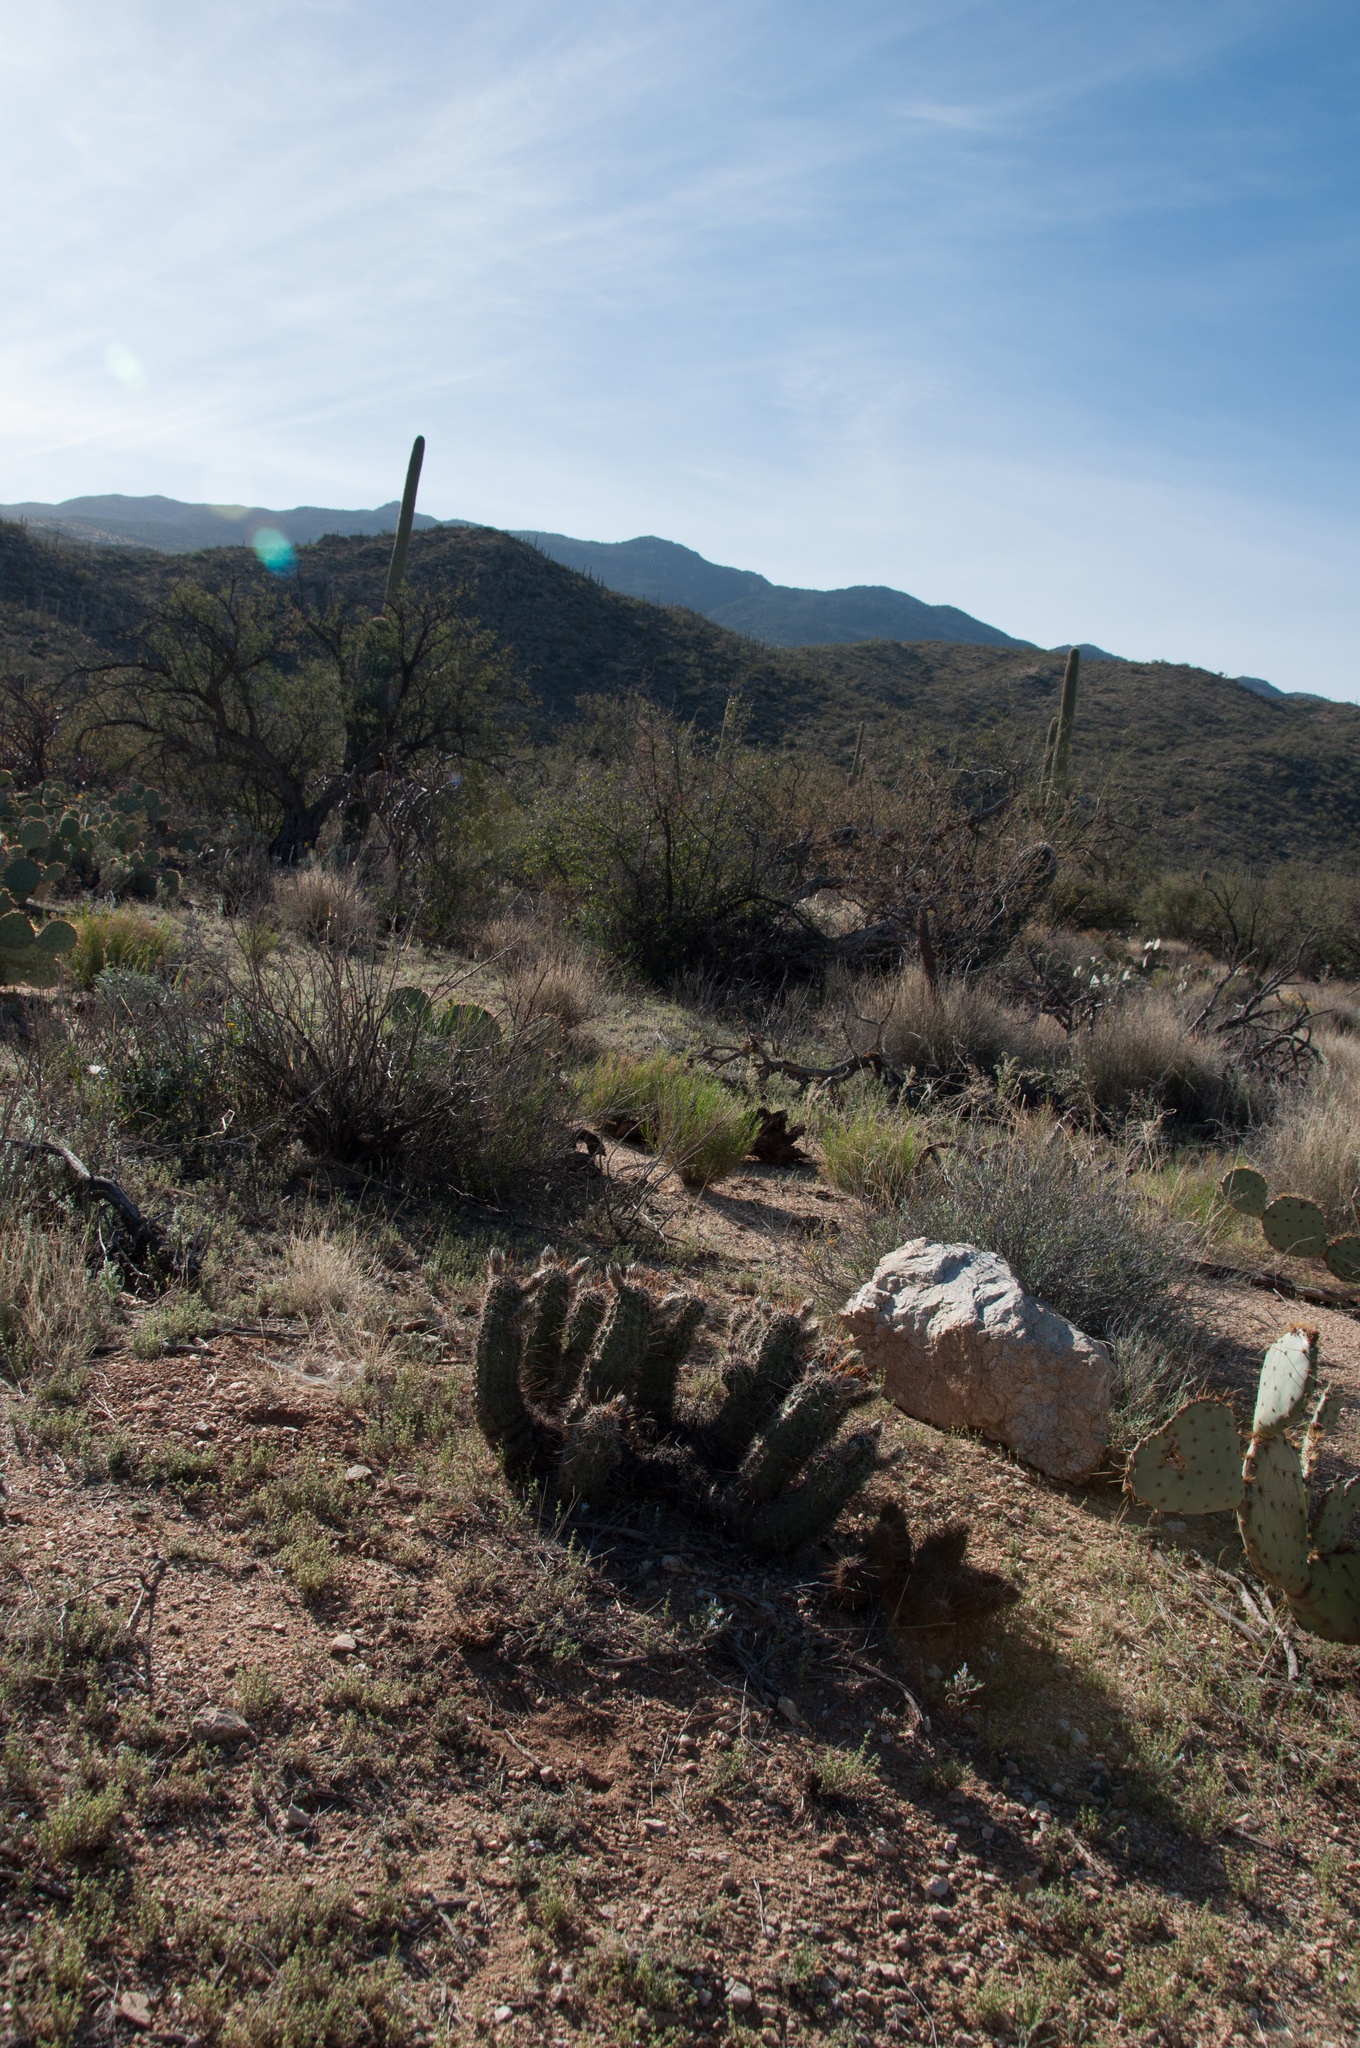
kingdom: Plantae
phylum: Tracheophyta
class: Magnoliopsida
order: Caryophyllales
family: Cactaceae
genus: Echinocereus
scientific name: Echinocereus fasciculatus
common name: Bundle hedgehog
